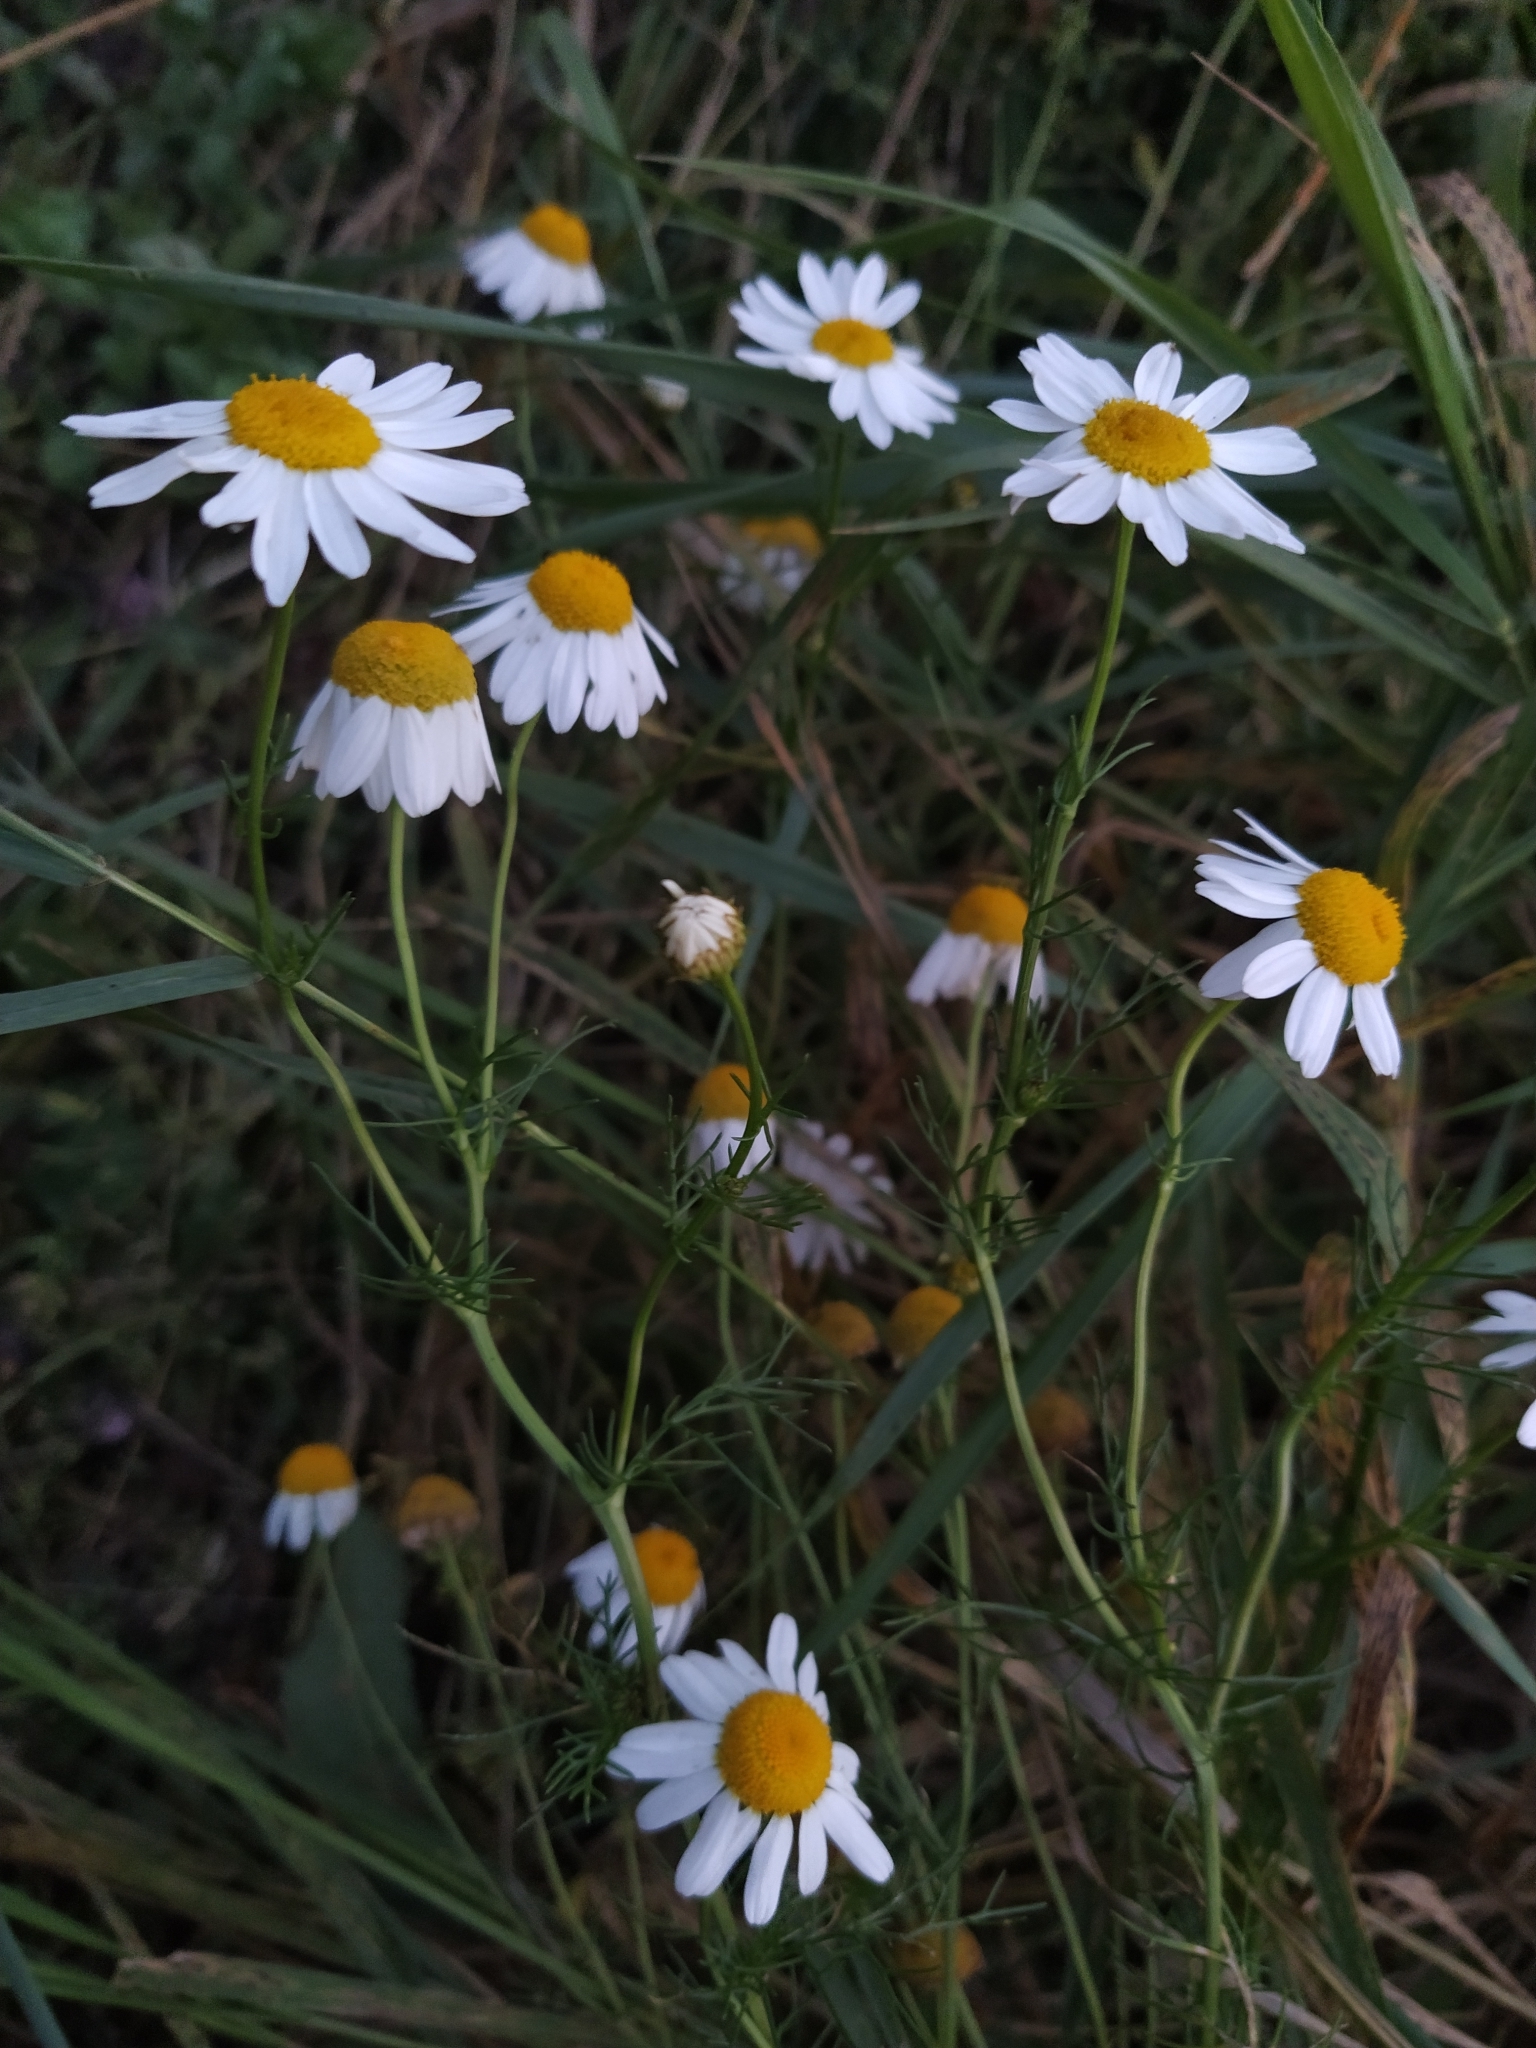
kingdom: Plantae
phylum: Tracheophyta
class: Magnoliopsida
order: Asterales
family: Asteraceae
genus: Tripleurospermum
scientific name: Tripleurospermum inodorum
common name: Scentless mayweed
